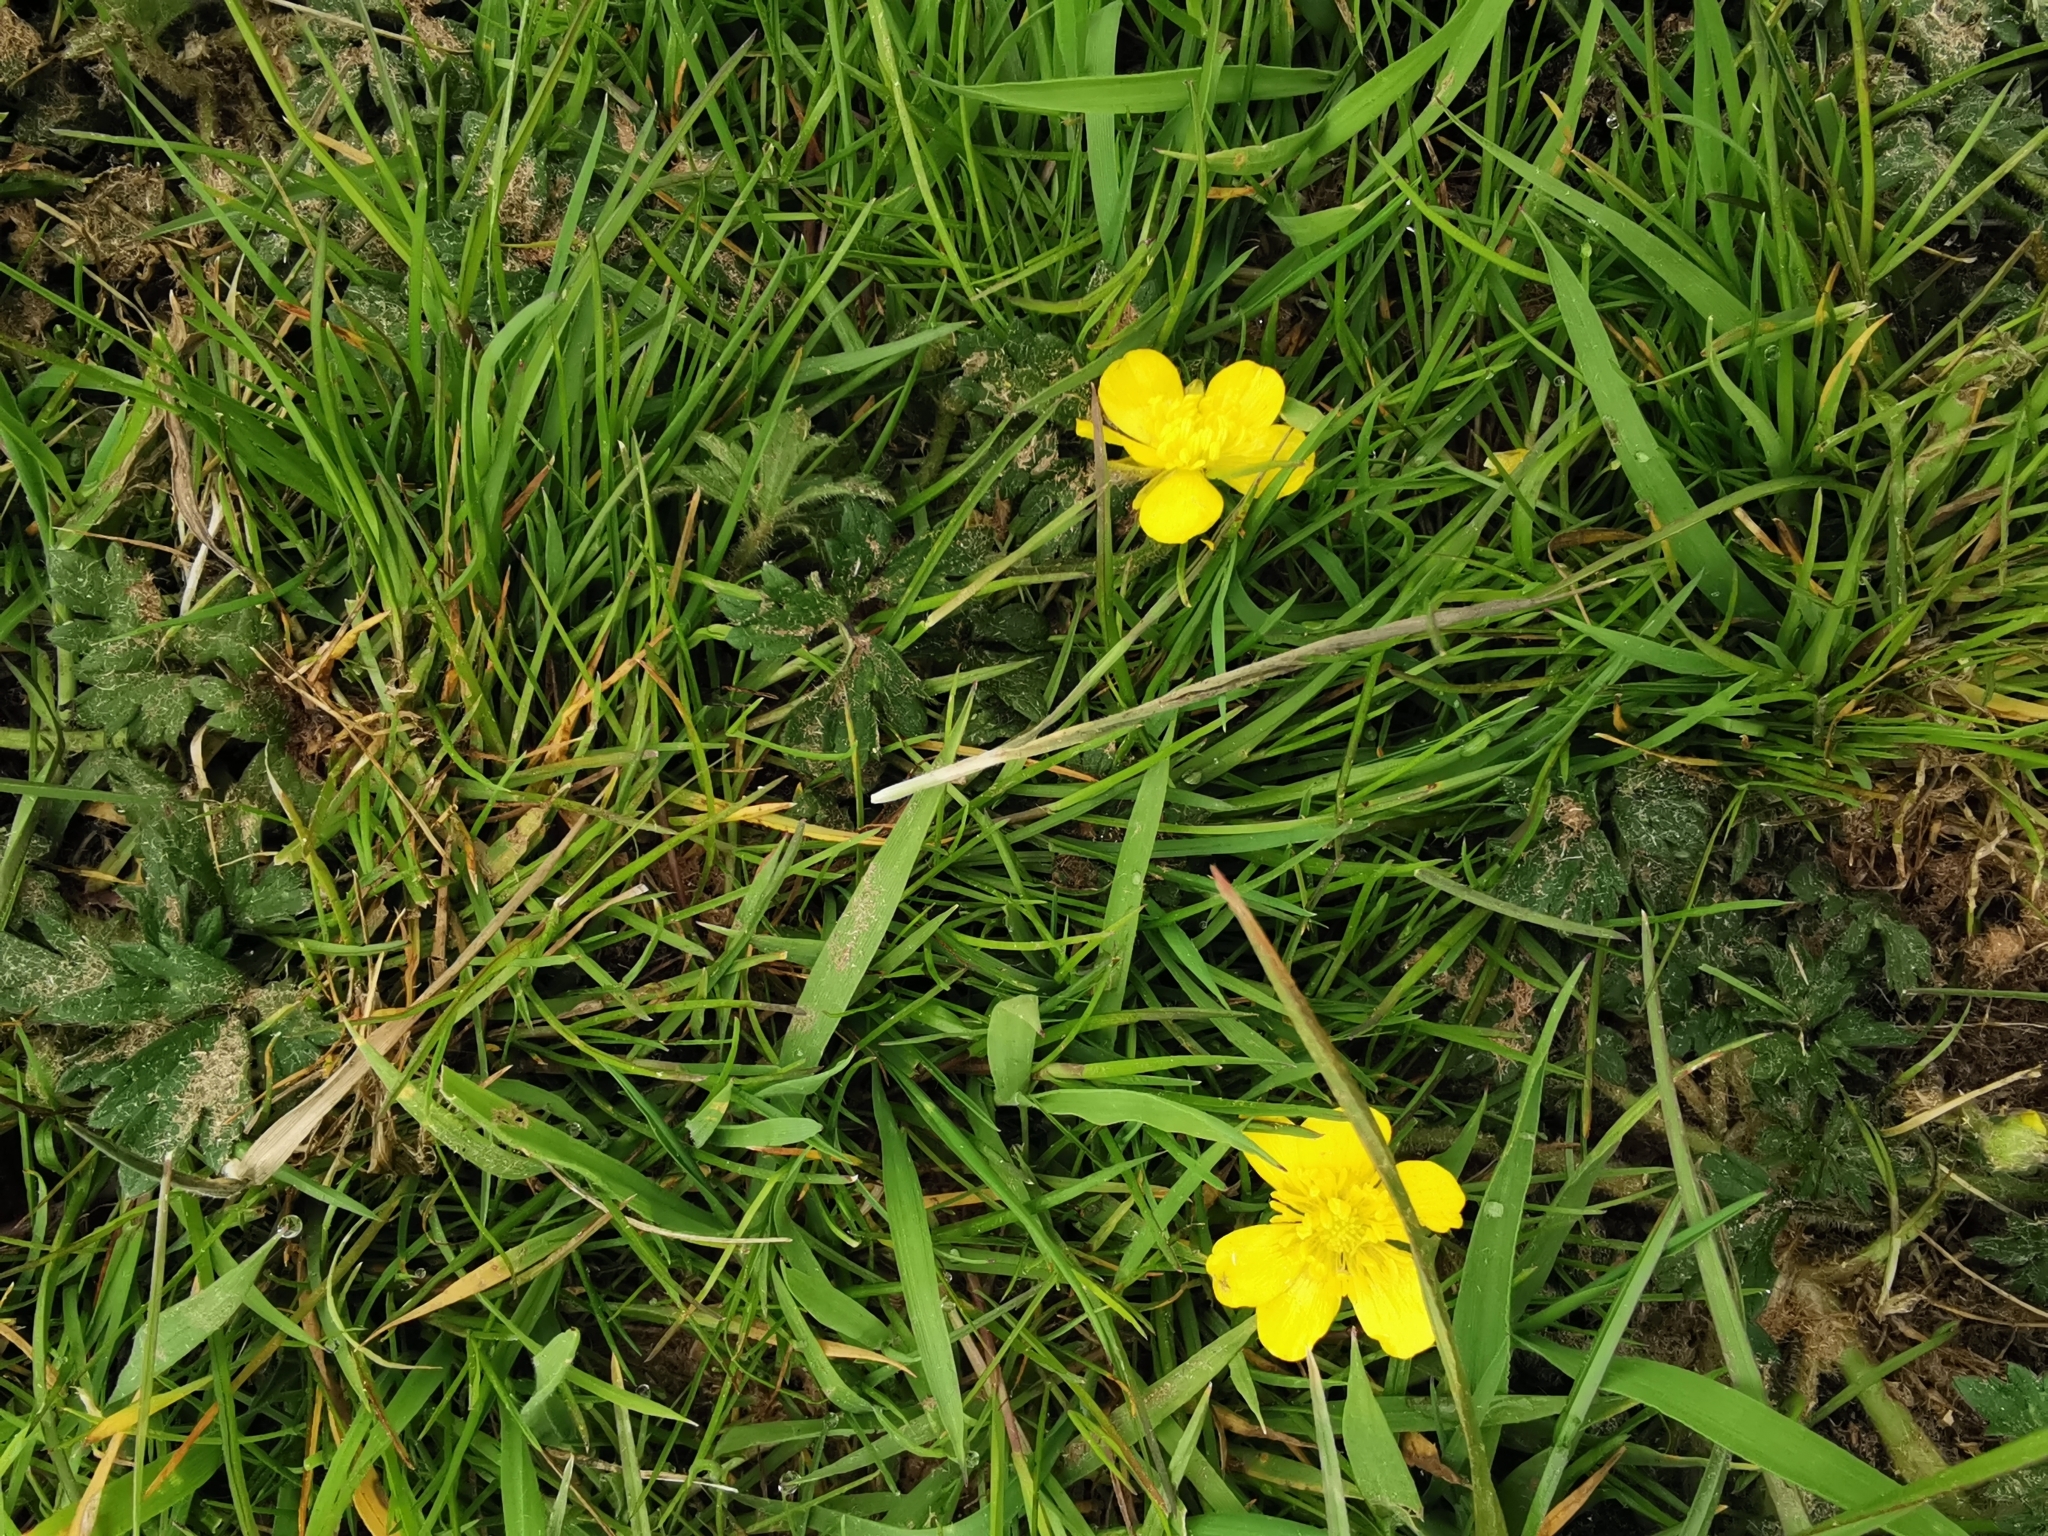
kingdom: Plantae
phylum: Tracheophyta
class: Magnoliopsida
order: Ranunculales
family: Ranunculaceae
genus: Ranunculus
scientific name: Ranunculus repens
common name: Creeping buttercup
